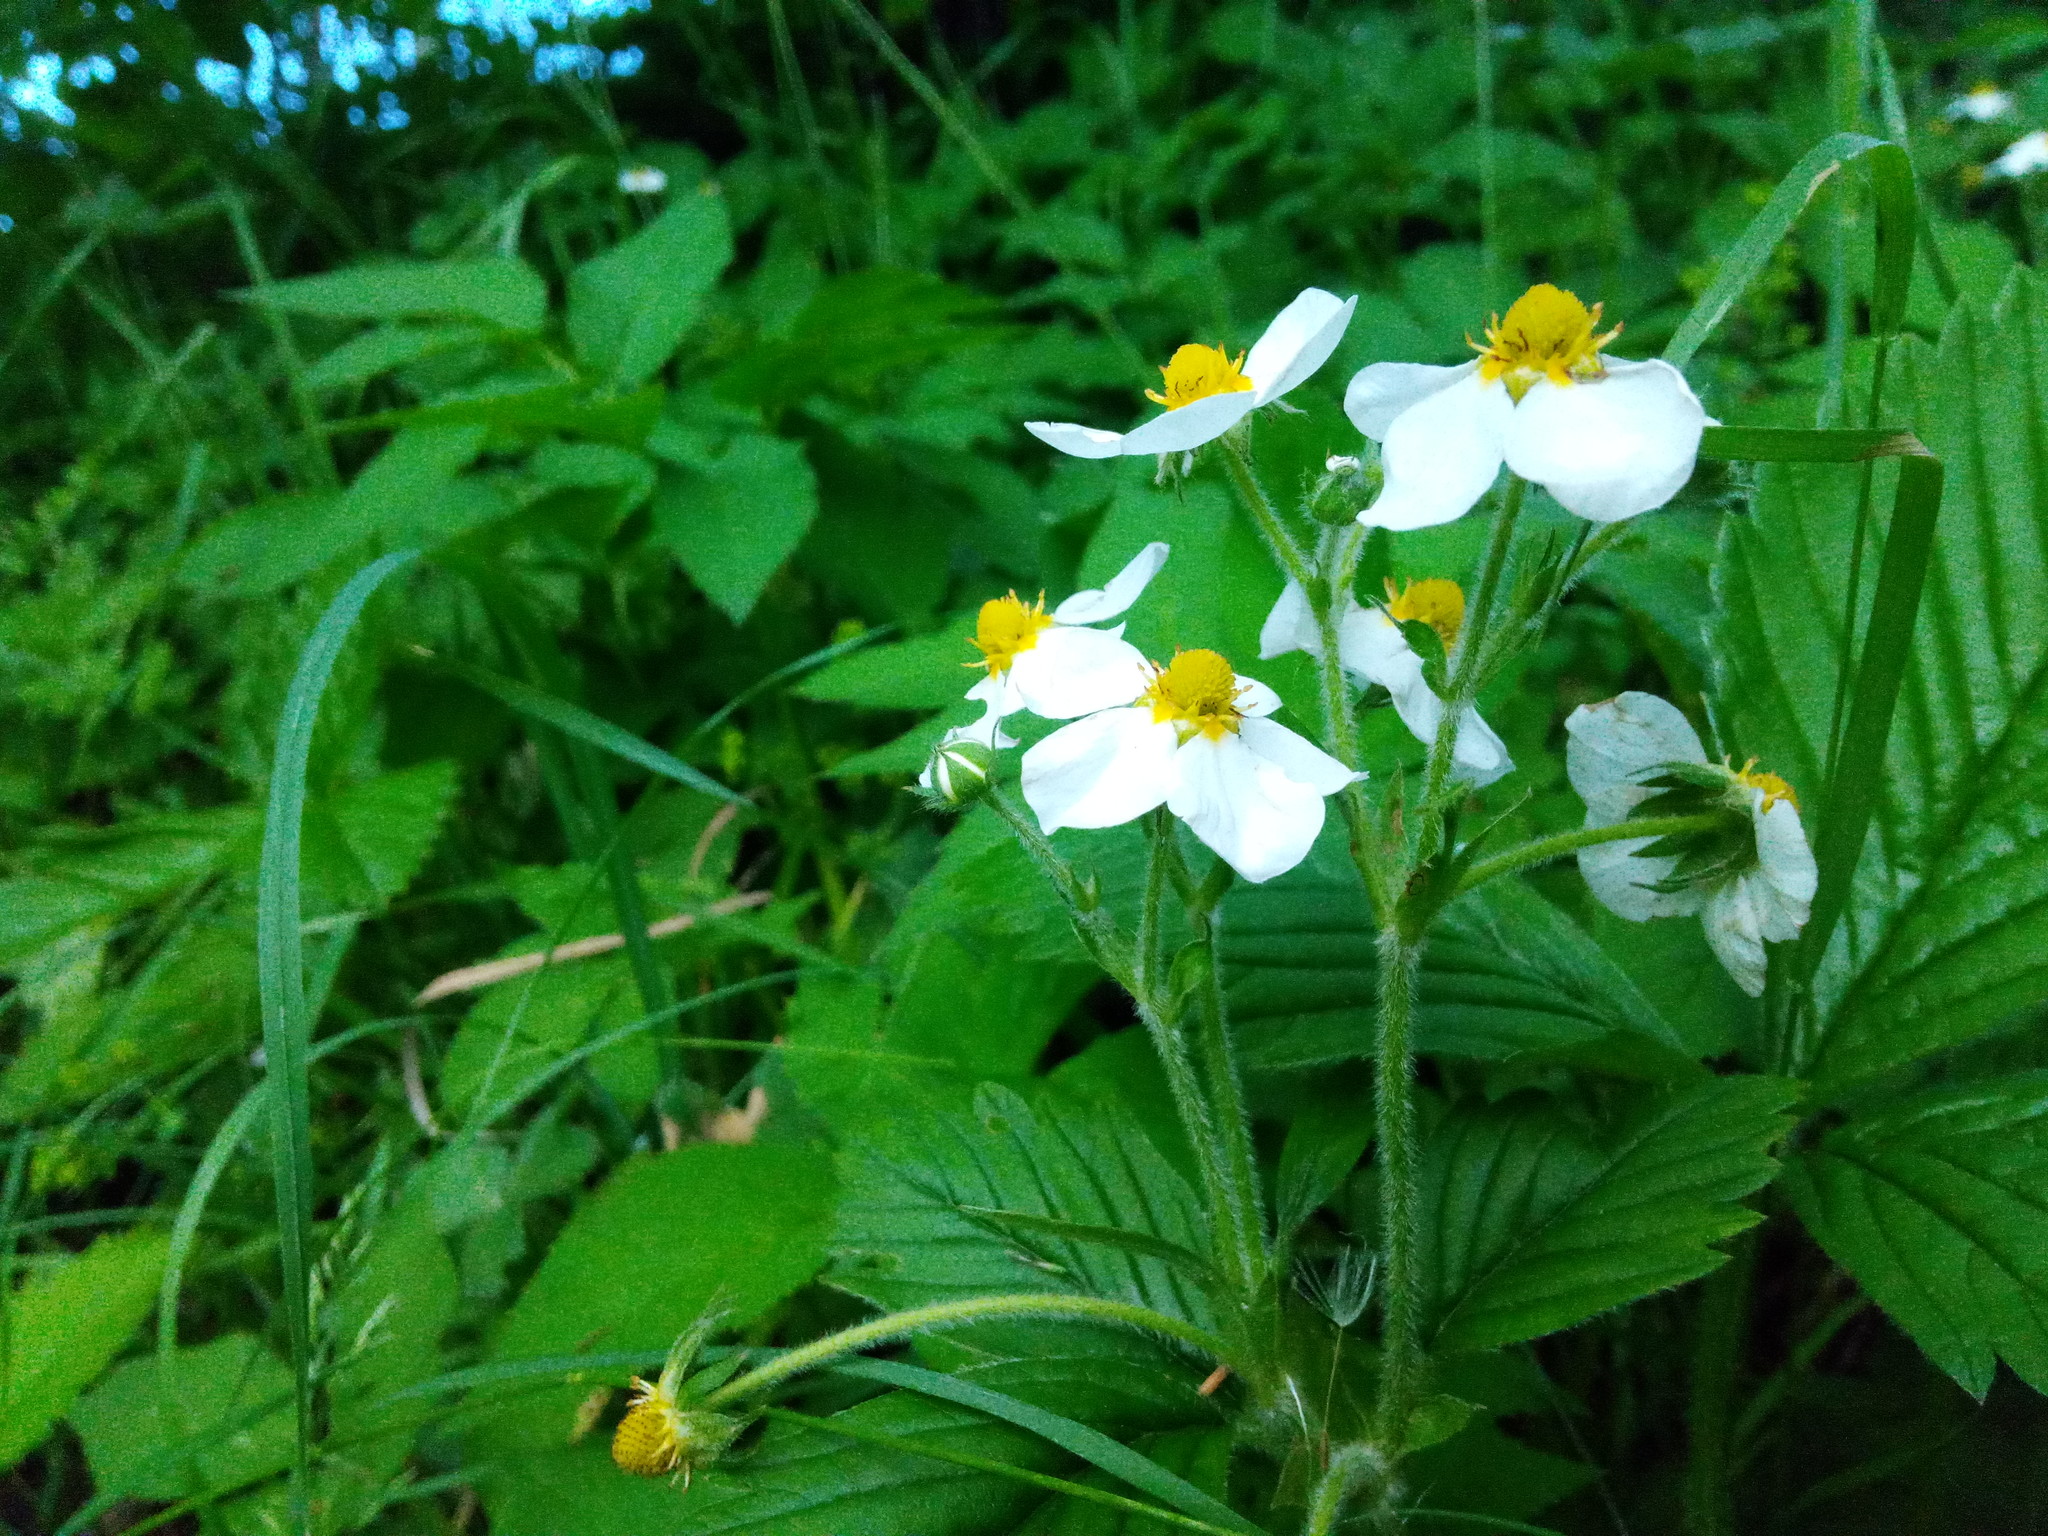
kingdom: Plantae
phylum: Tracheophyta
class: Magnoliopsida
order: Rosales
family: Rosaceae
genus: Fragaria
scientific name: Fragaria moschata
